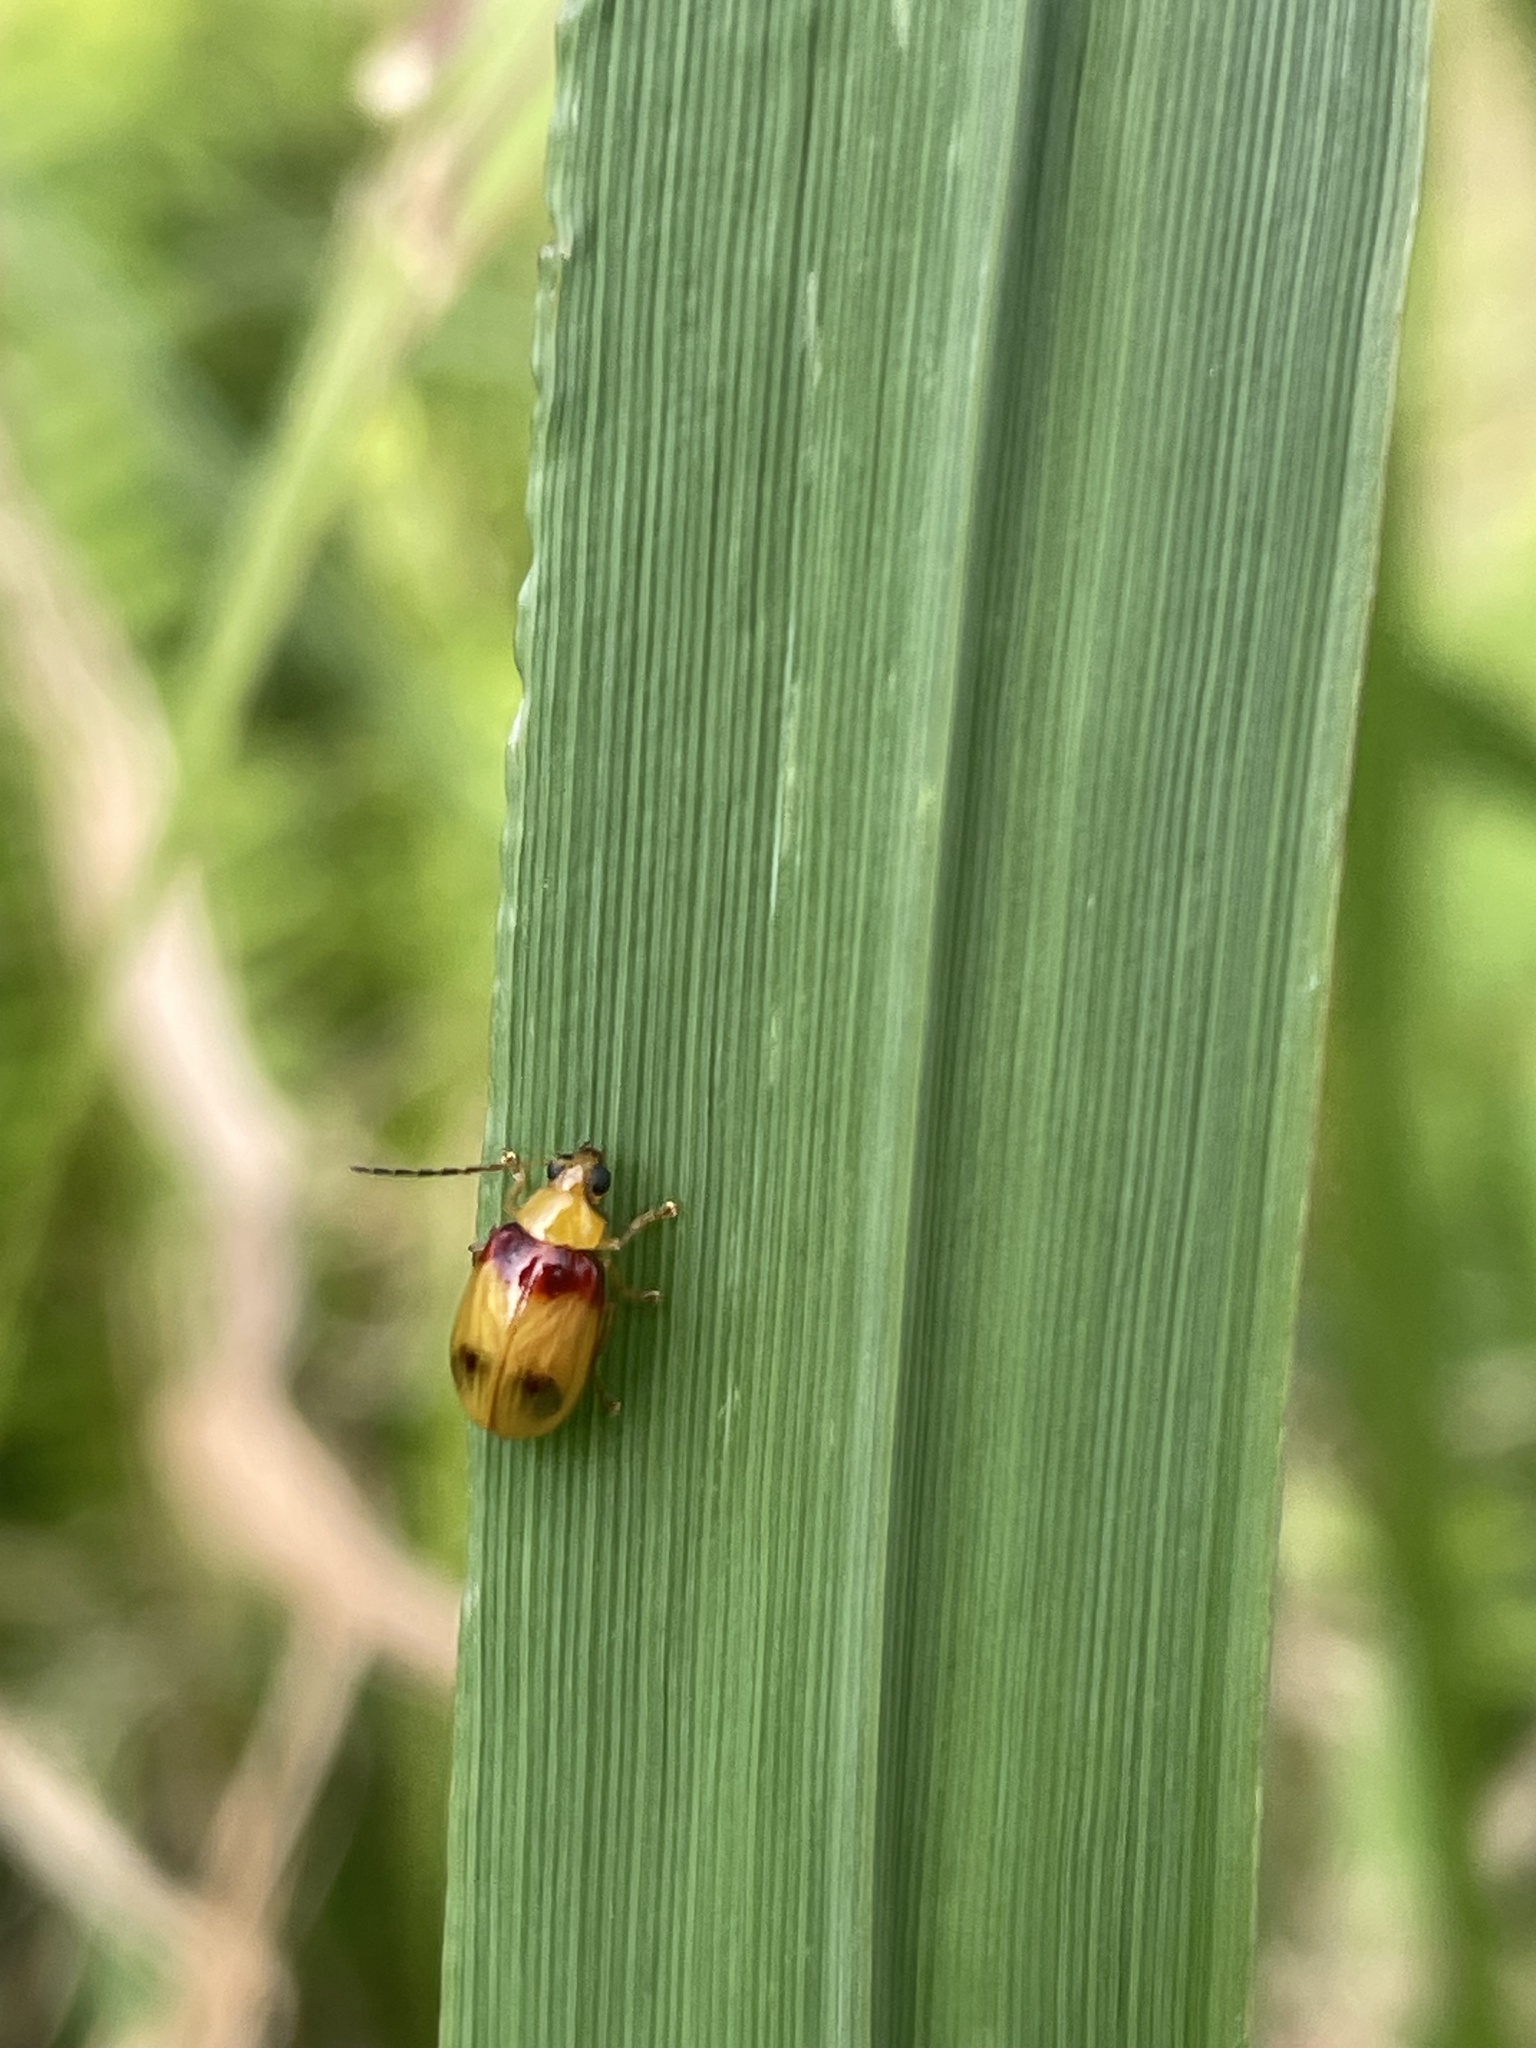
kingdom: Animalia
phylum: Arthropoda
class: Insecta
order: Coleoptera
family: Chrysomelidae
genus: Monolepta
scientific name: Monolepta
